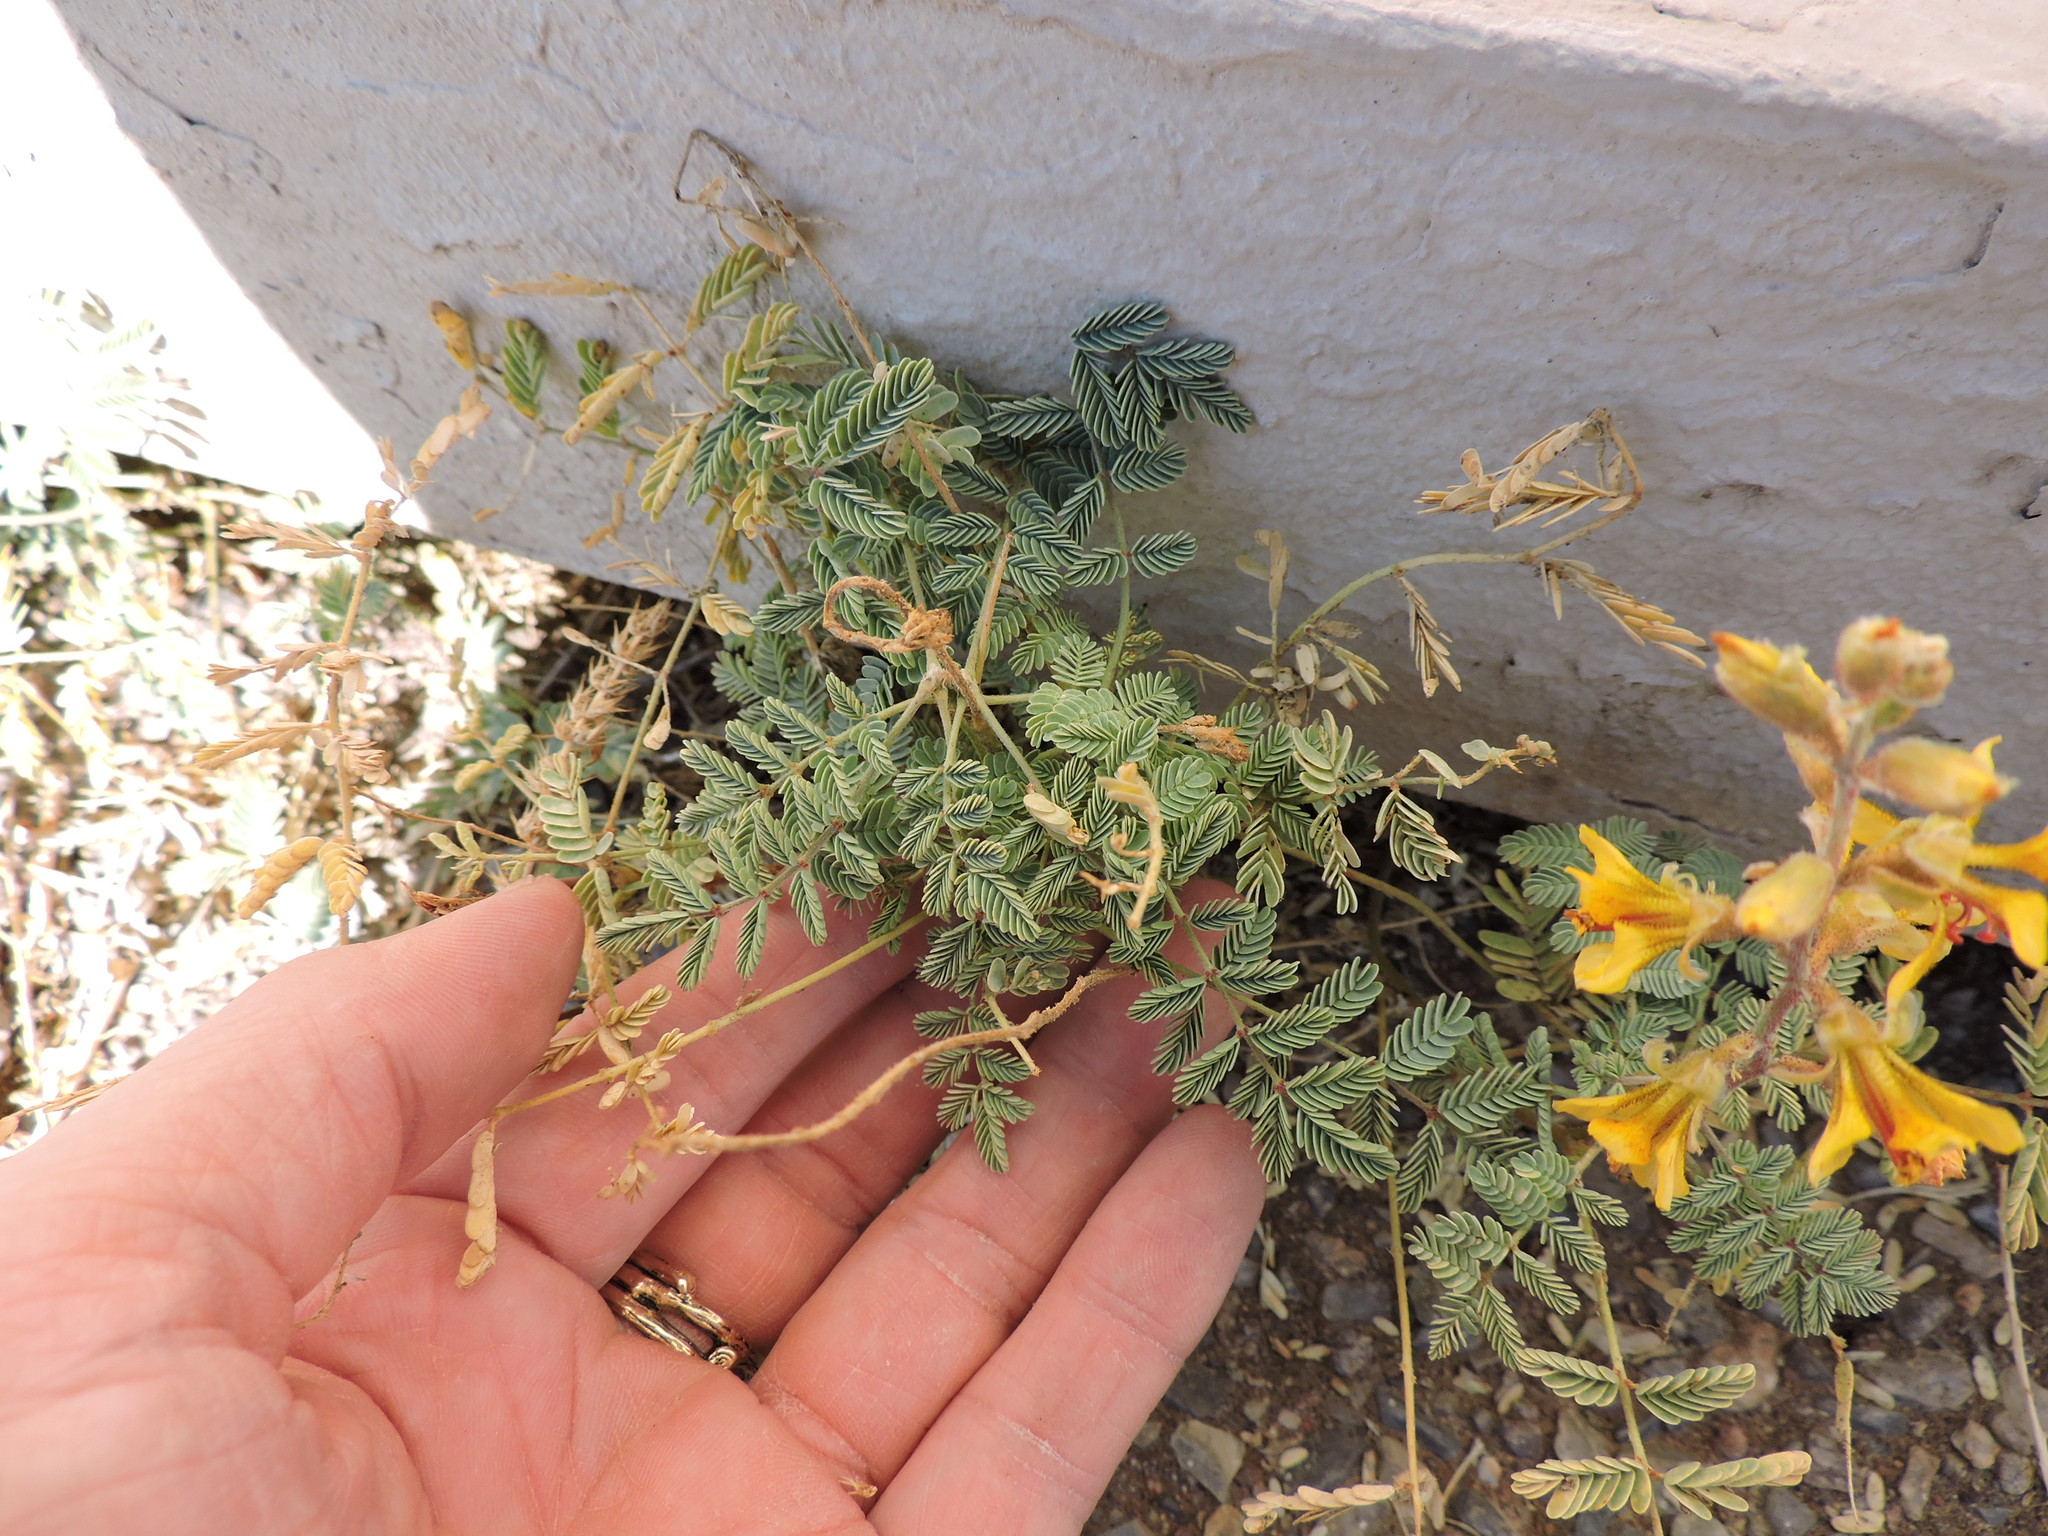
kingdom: Plantae
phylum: Tracheophyta
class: Magnoliopsida
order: Fabales
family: Fabaceae
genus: Hoffmannseggia
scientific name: Hoffmannseggia glauca
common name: Pignut
